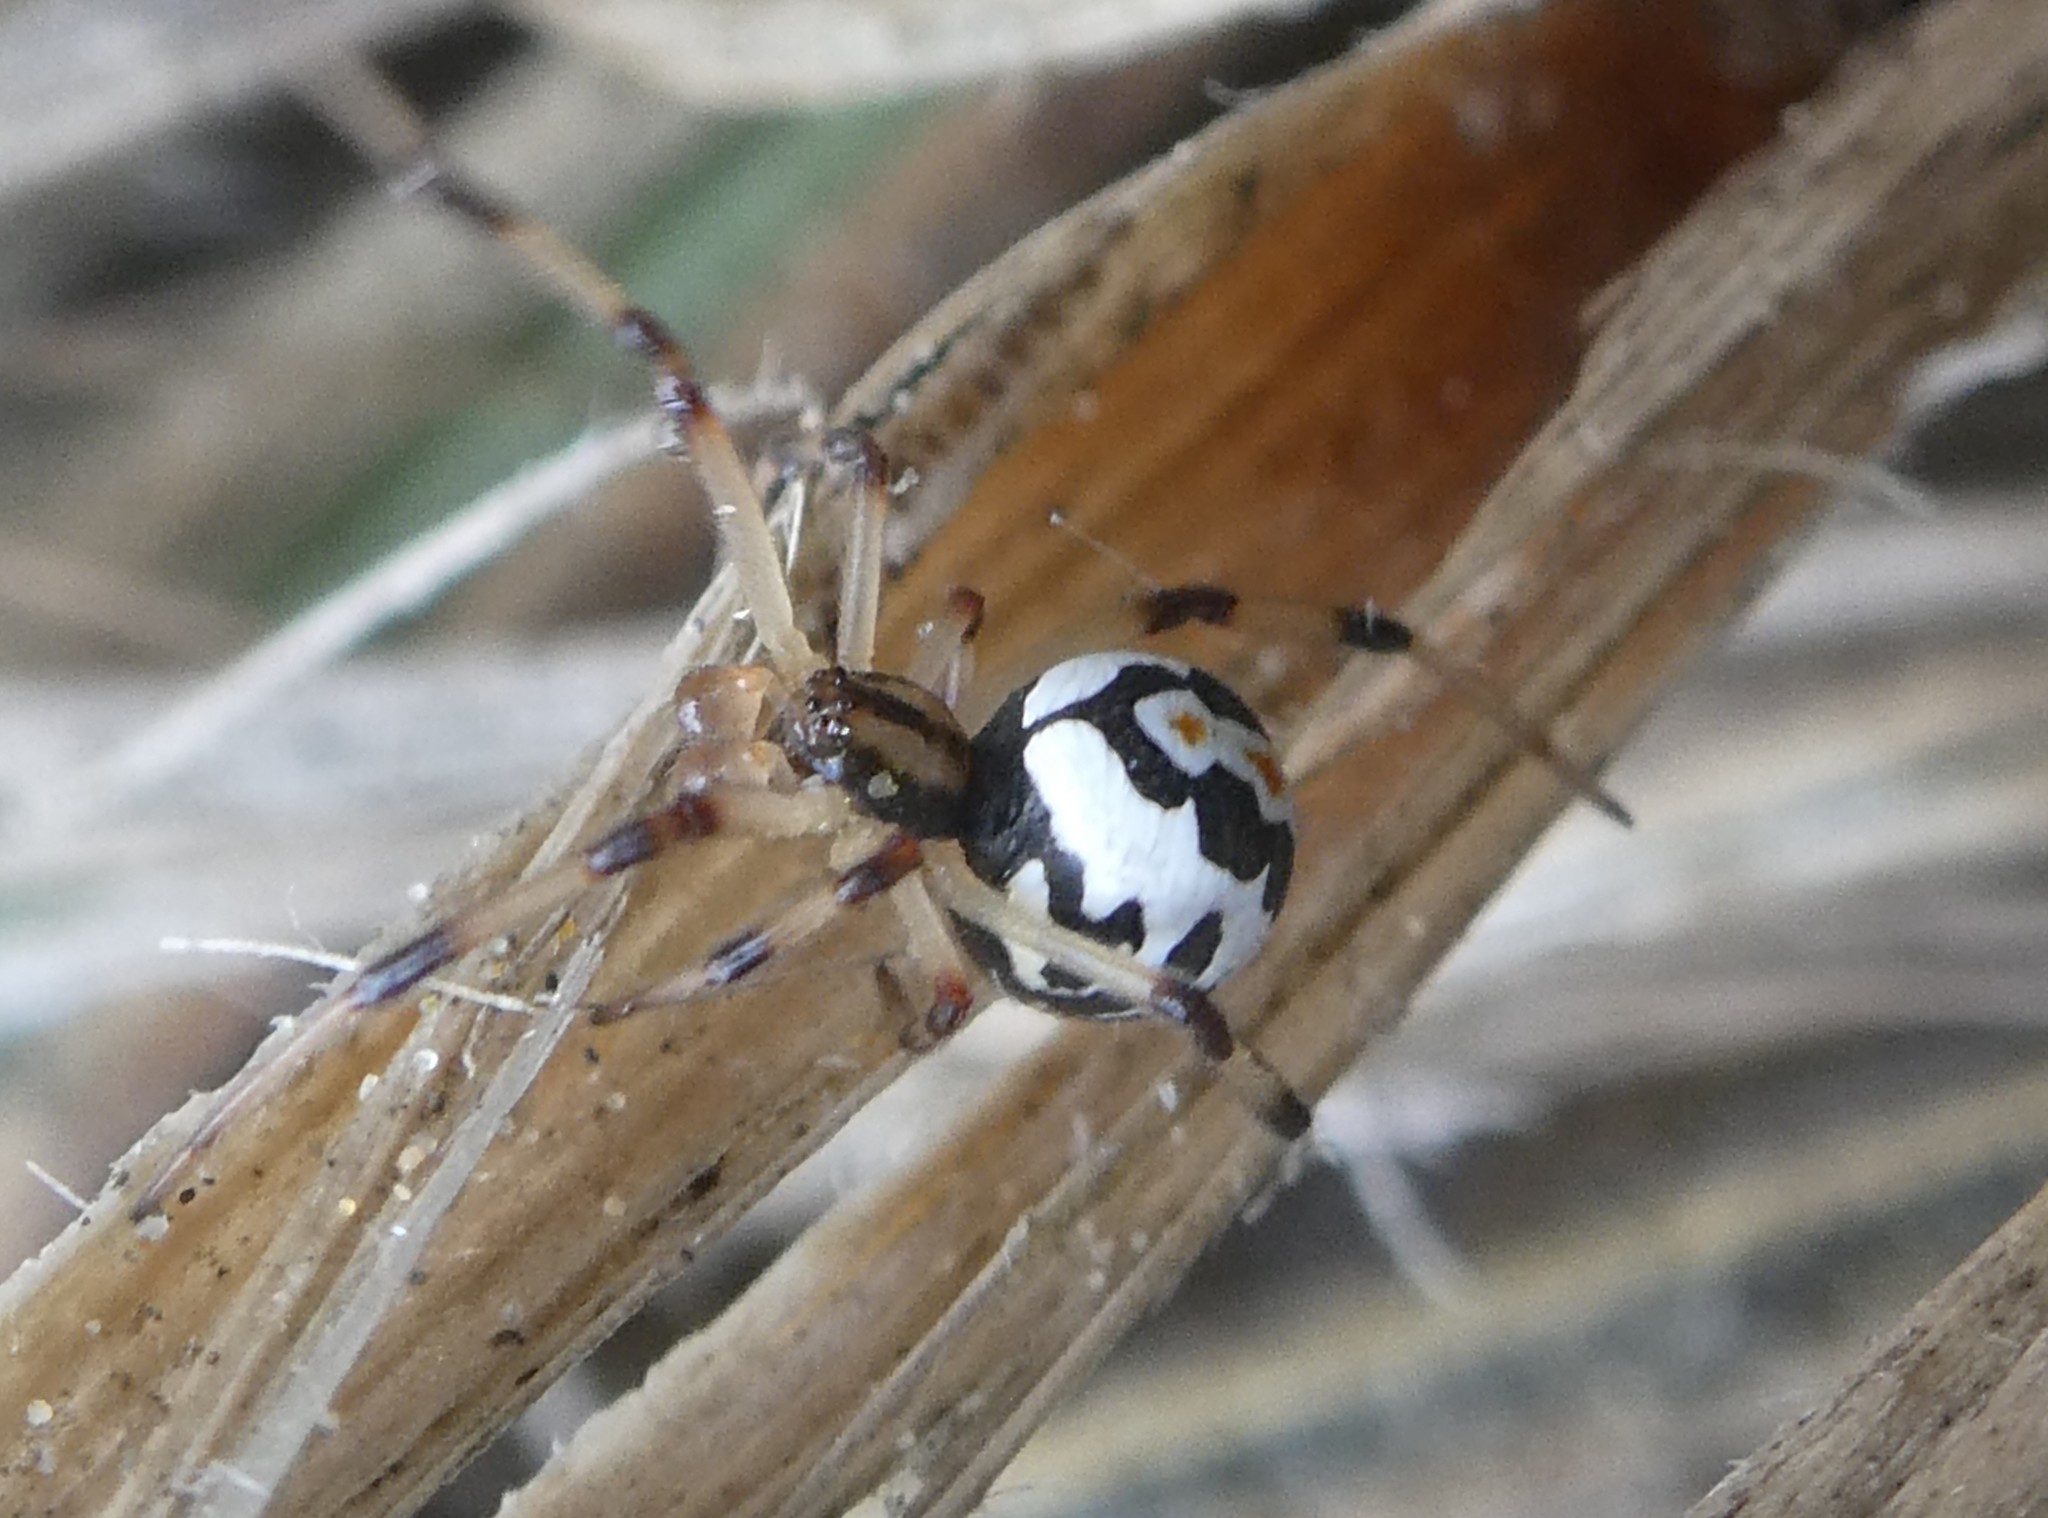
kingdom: Animalia
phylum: Arthropoda
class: Arachnida
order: Araneae
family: Theridiidae
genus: Latrodectus
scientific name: Latrodectus katipo
